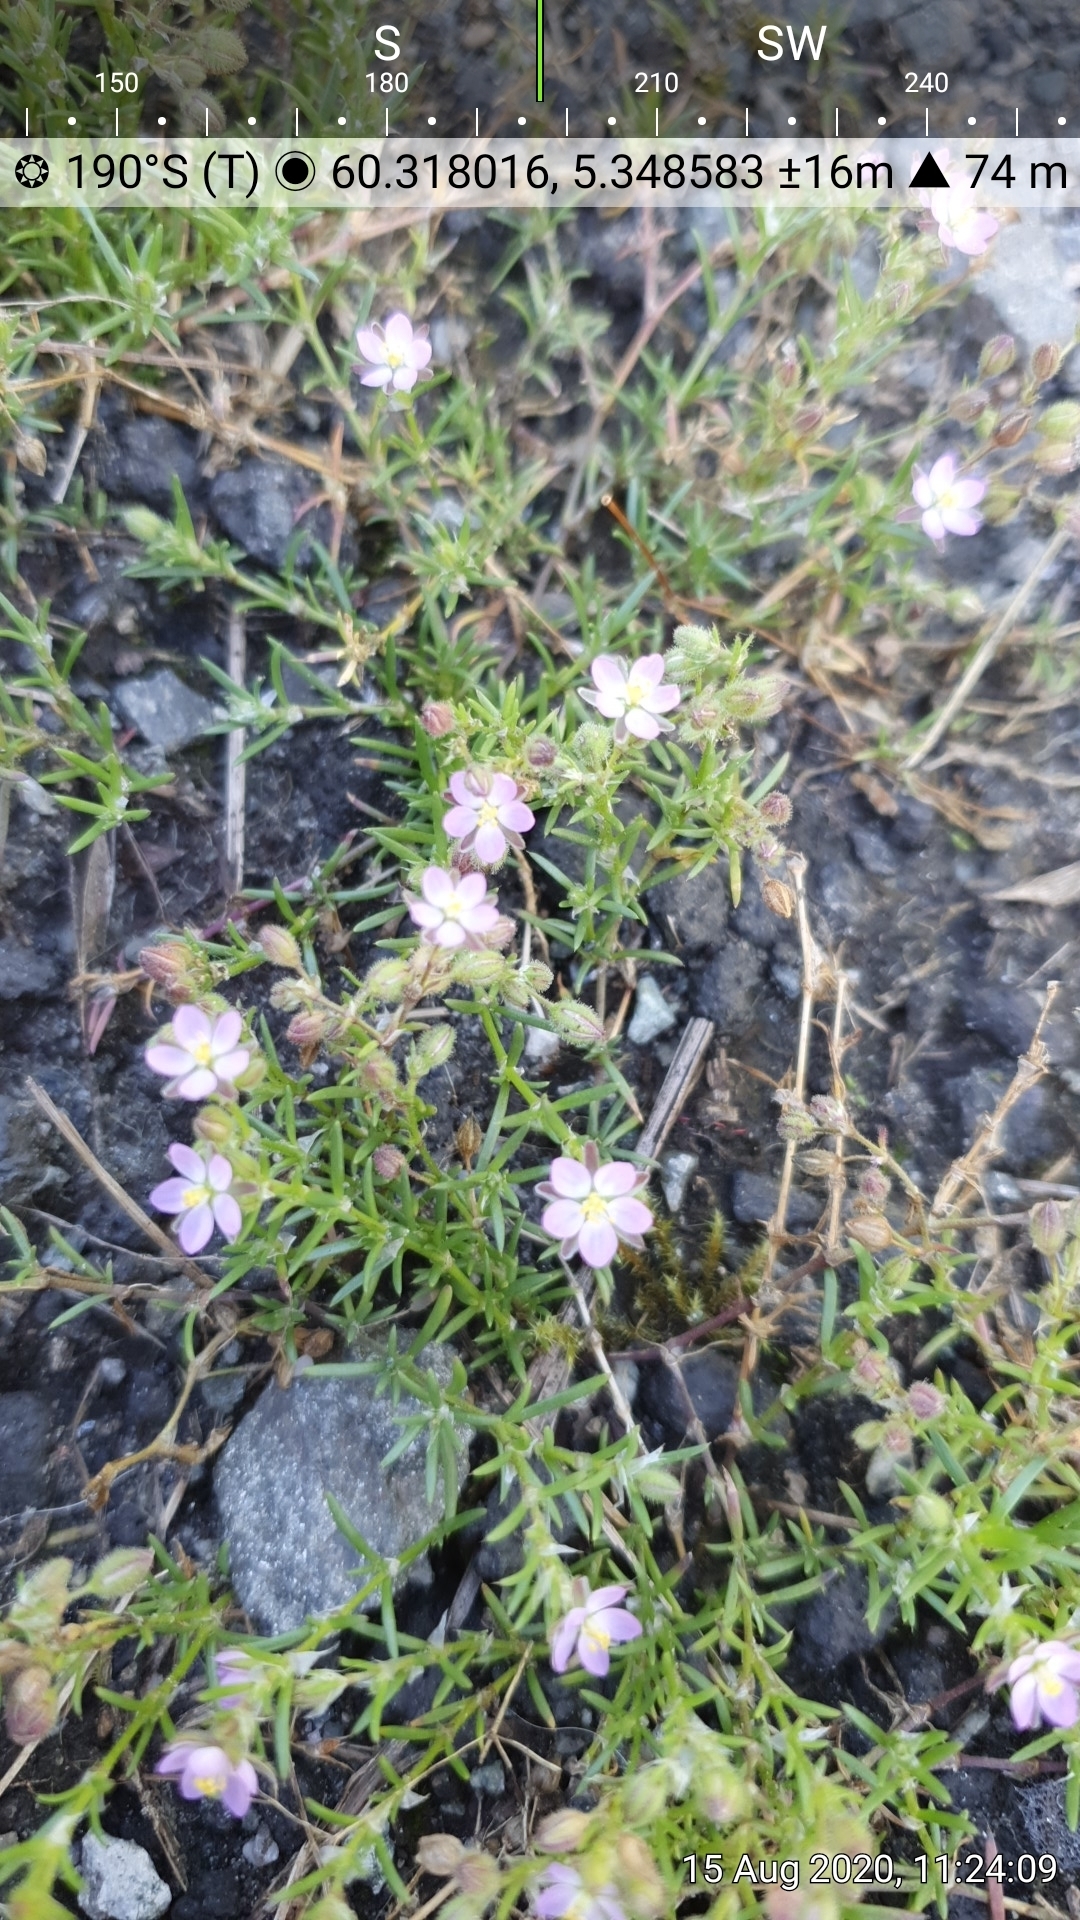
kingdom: Plantae
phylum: Tracheophyta
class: Magnoliopsida
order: Caryophyllales
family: Caryophyllaceae
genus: Spergularia
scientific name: Spergularia rubra
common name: Red sand-spurrey
